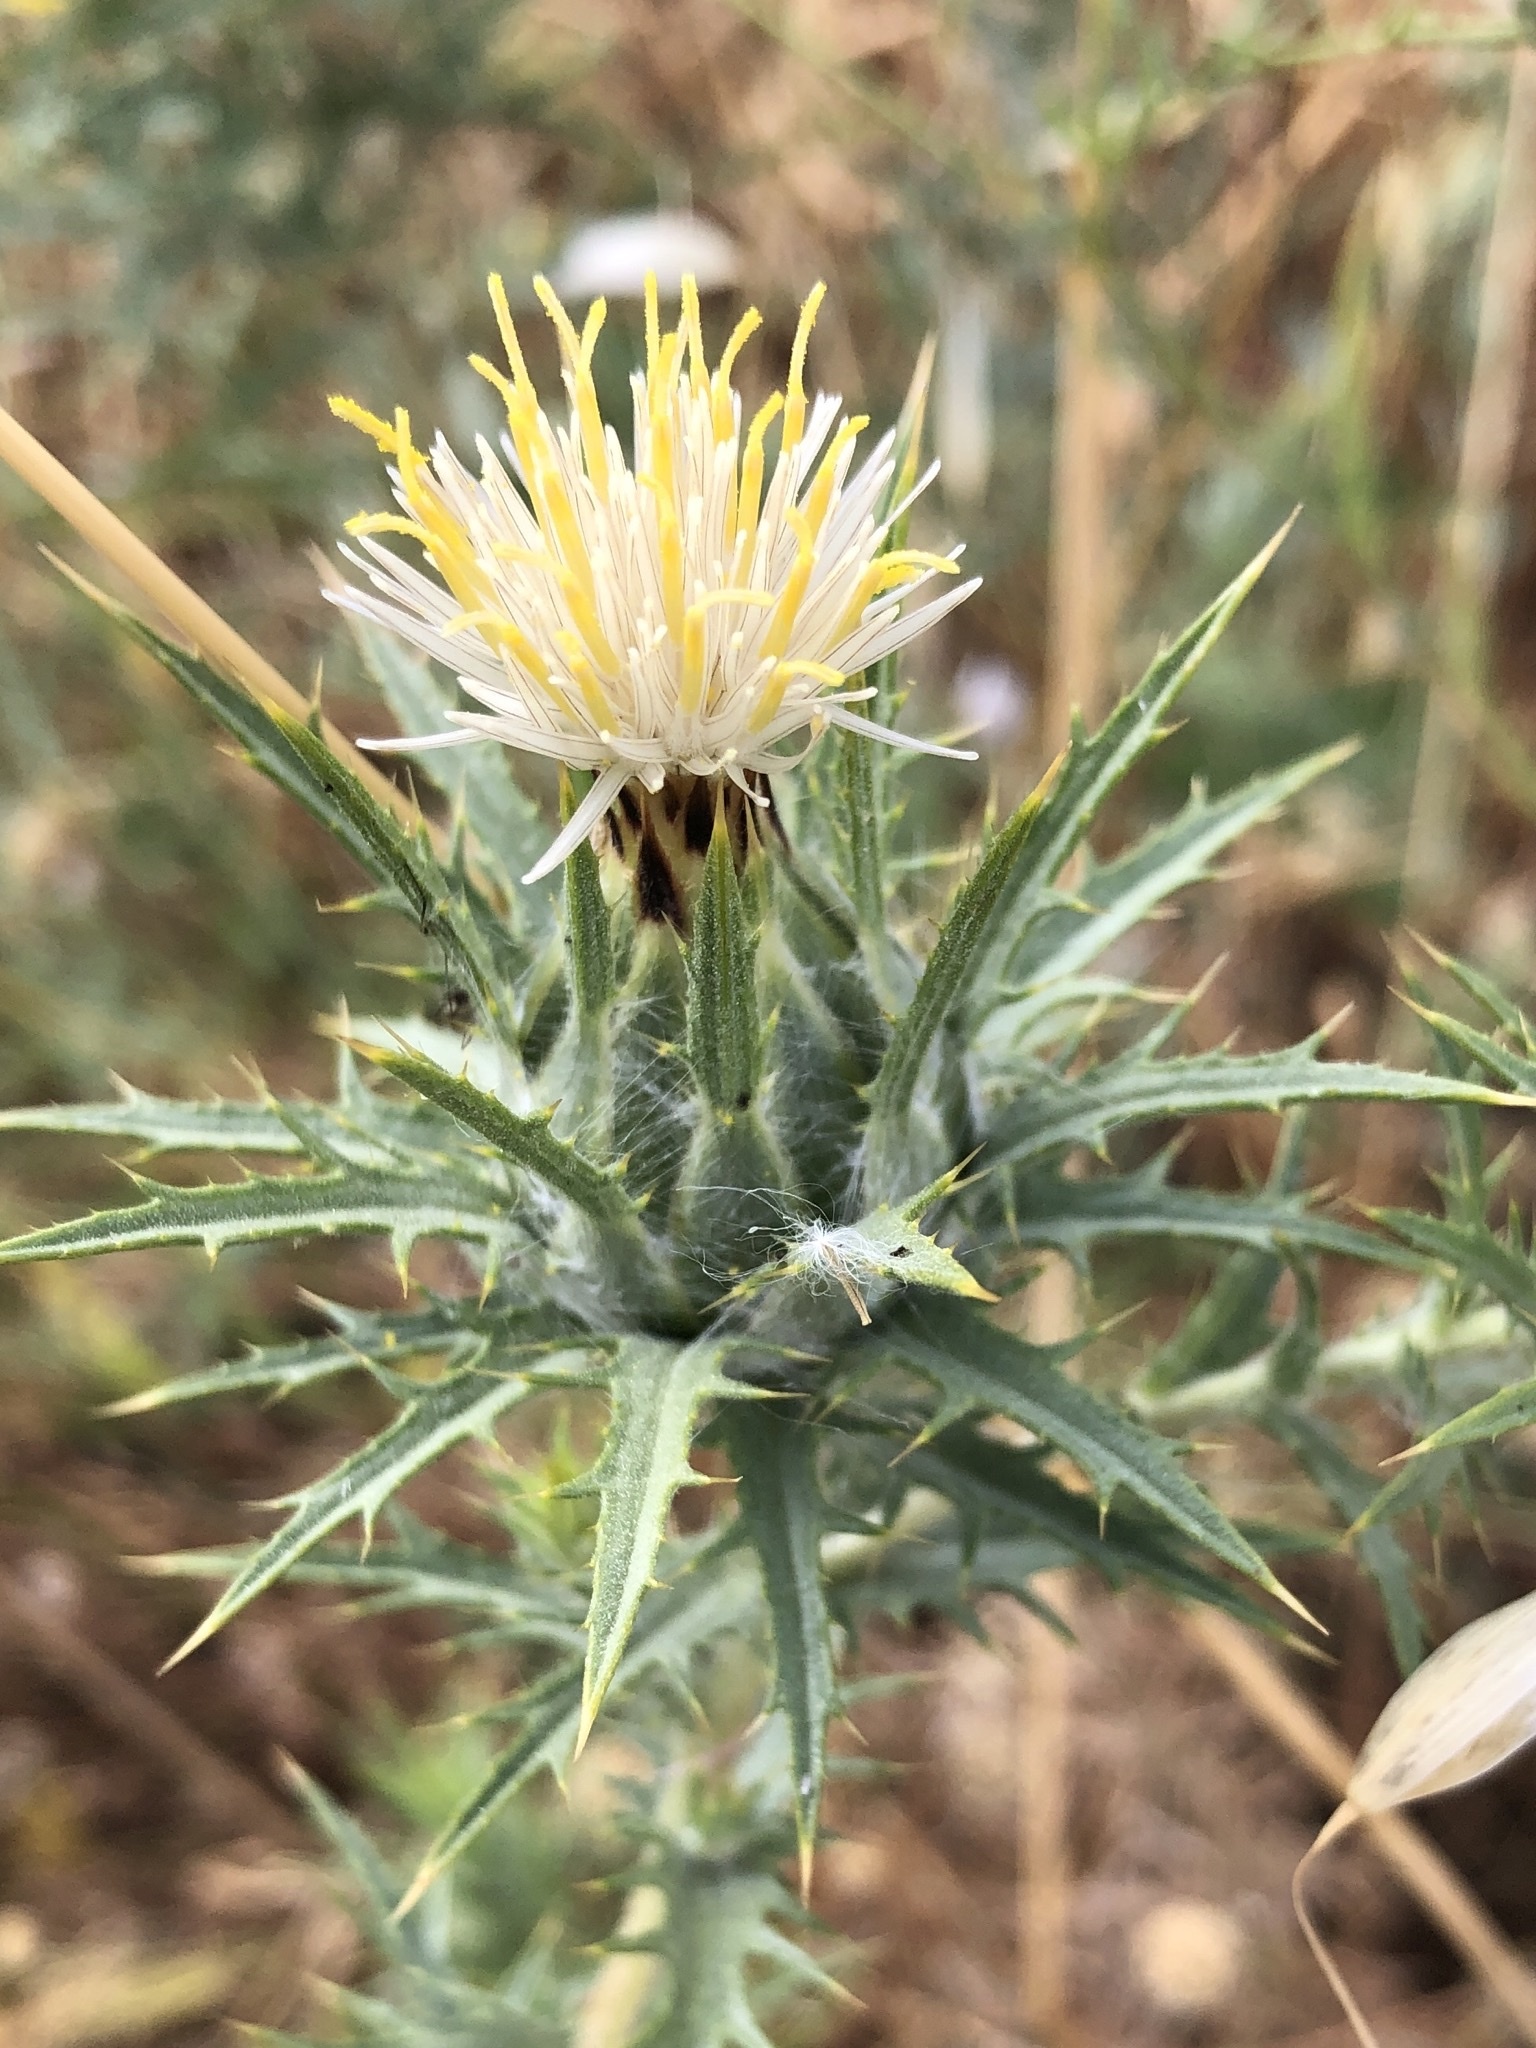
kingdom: Plantae
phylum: Tracheophyta
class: Magnoliopsida
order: Asterales
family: Asteraceae
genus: Carthamus
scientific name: Carthamus lanatus
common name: Downy safflower
